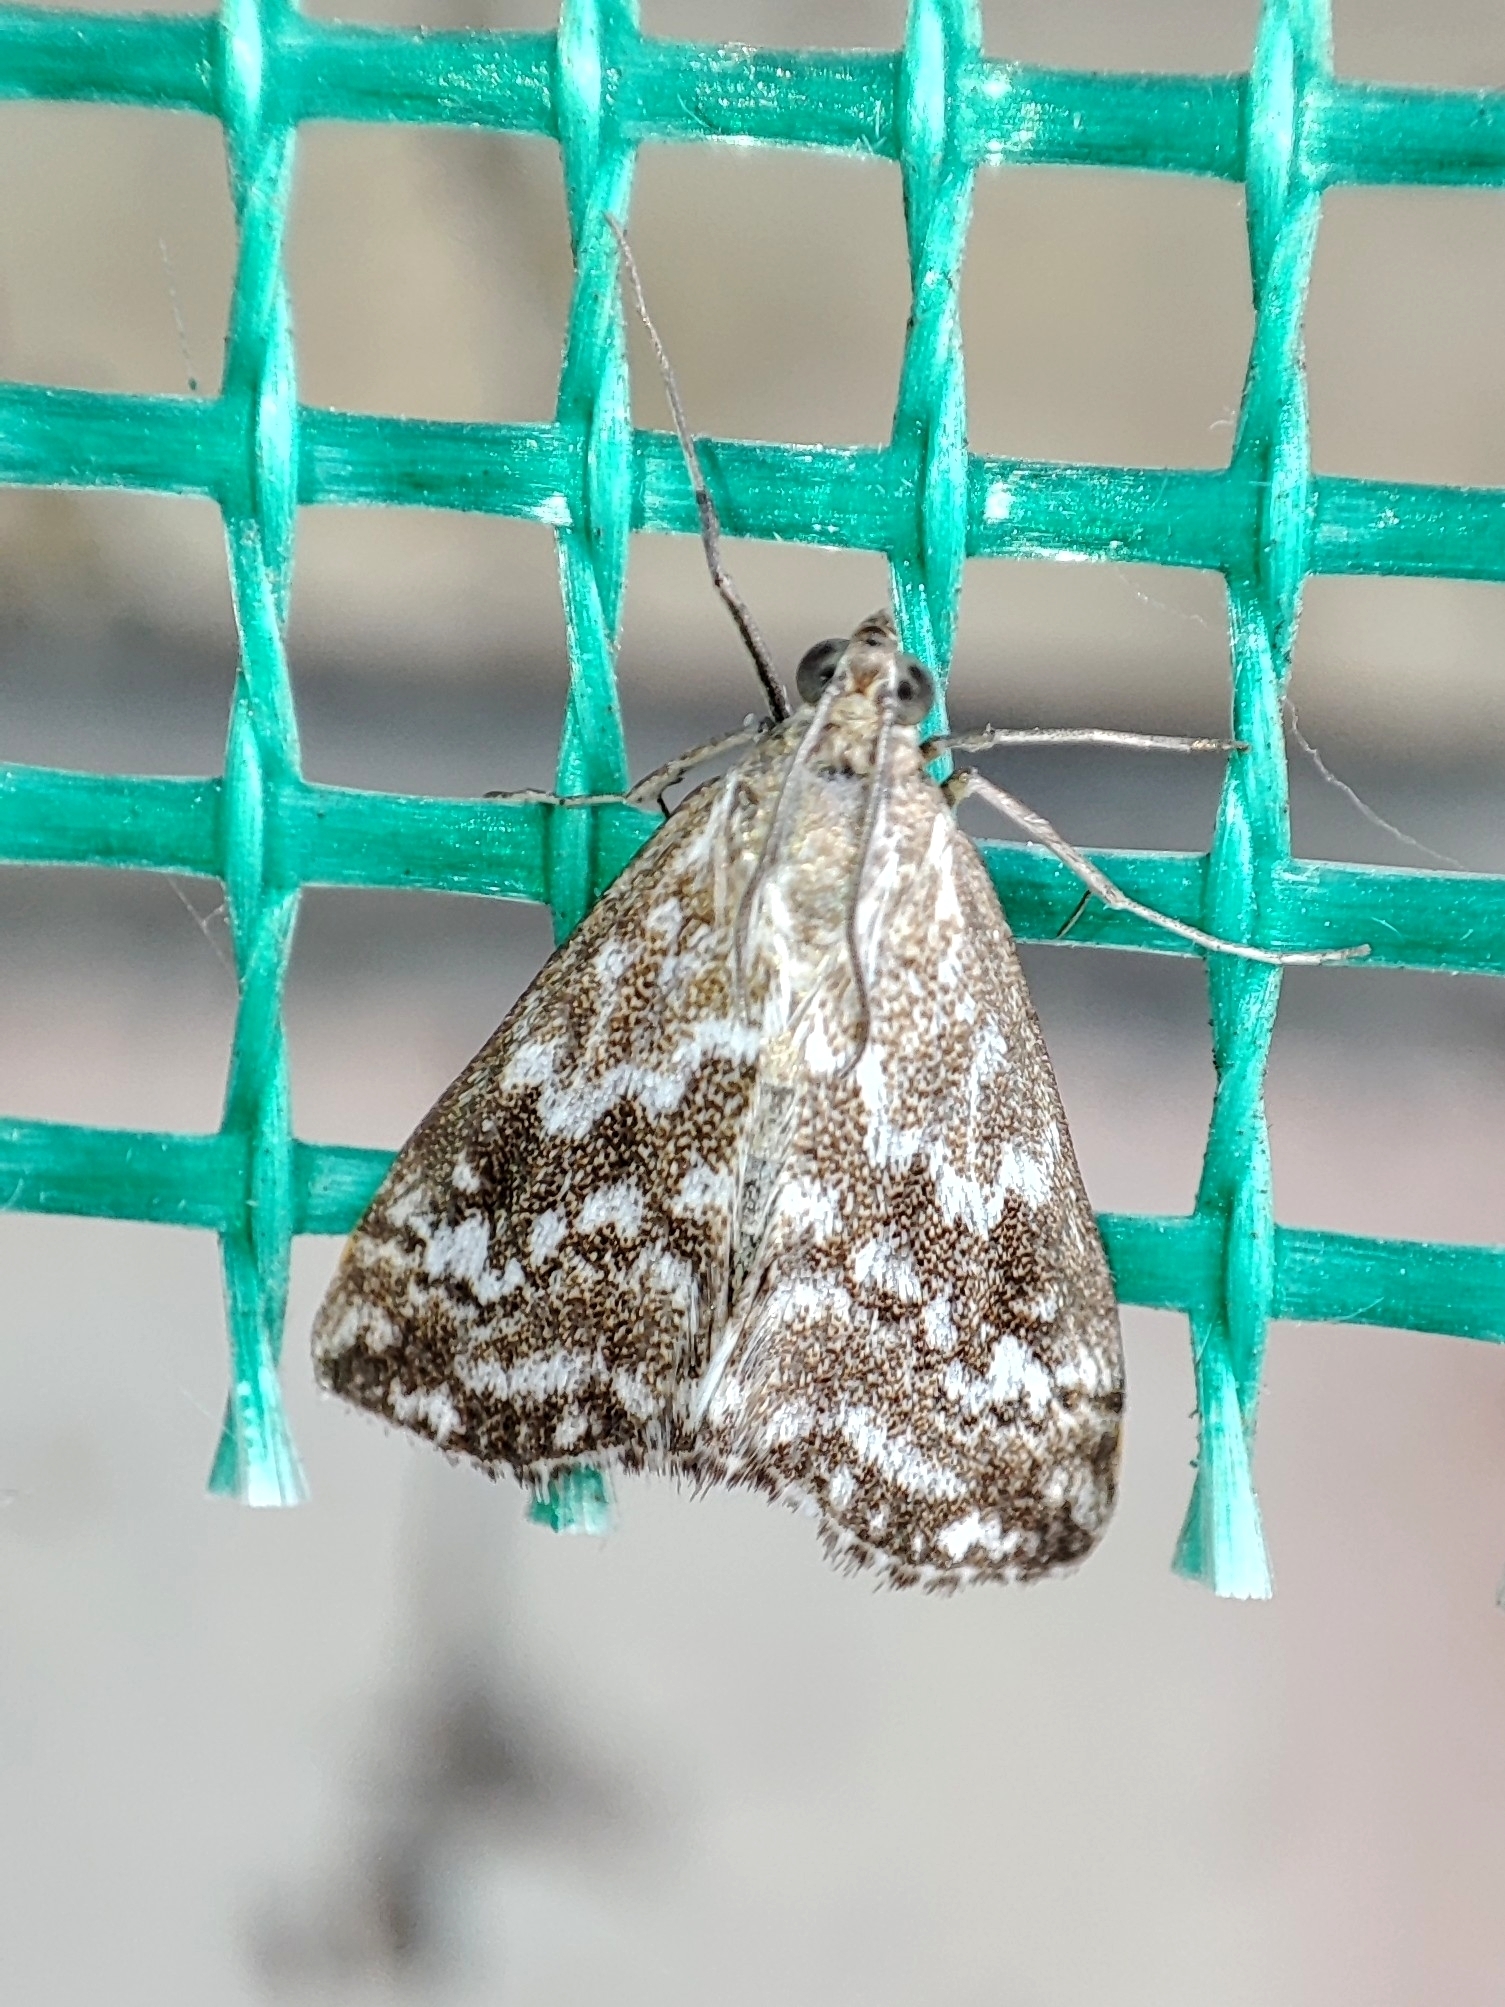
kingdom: Animalia
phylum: Arthropoda
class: Insecta
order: Lepidoptera
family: Crambidae
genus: Evergestis
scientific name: Evergestis frumentalis
